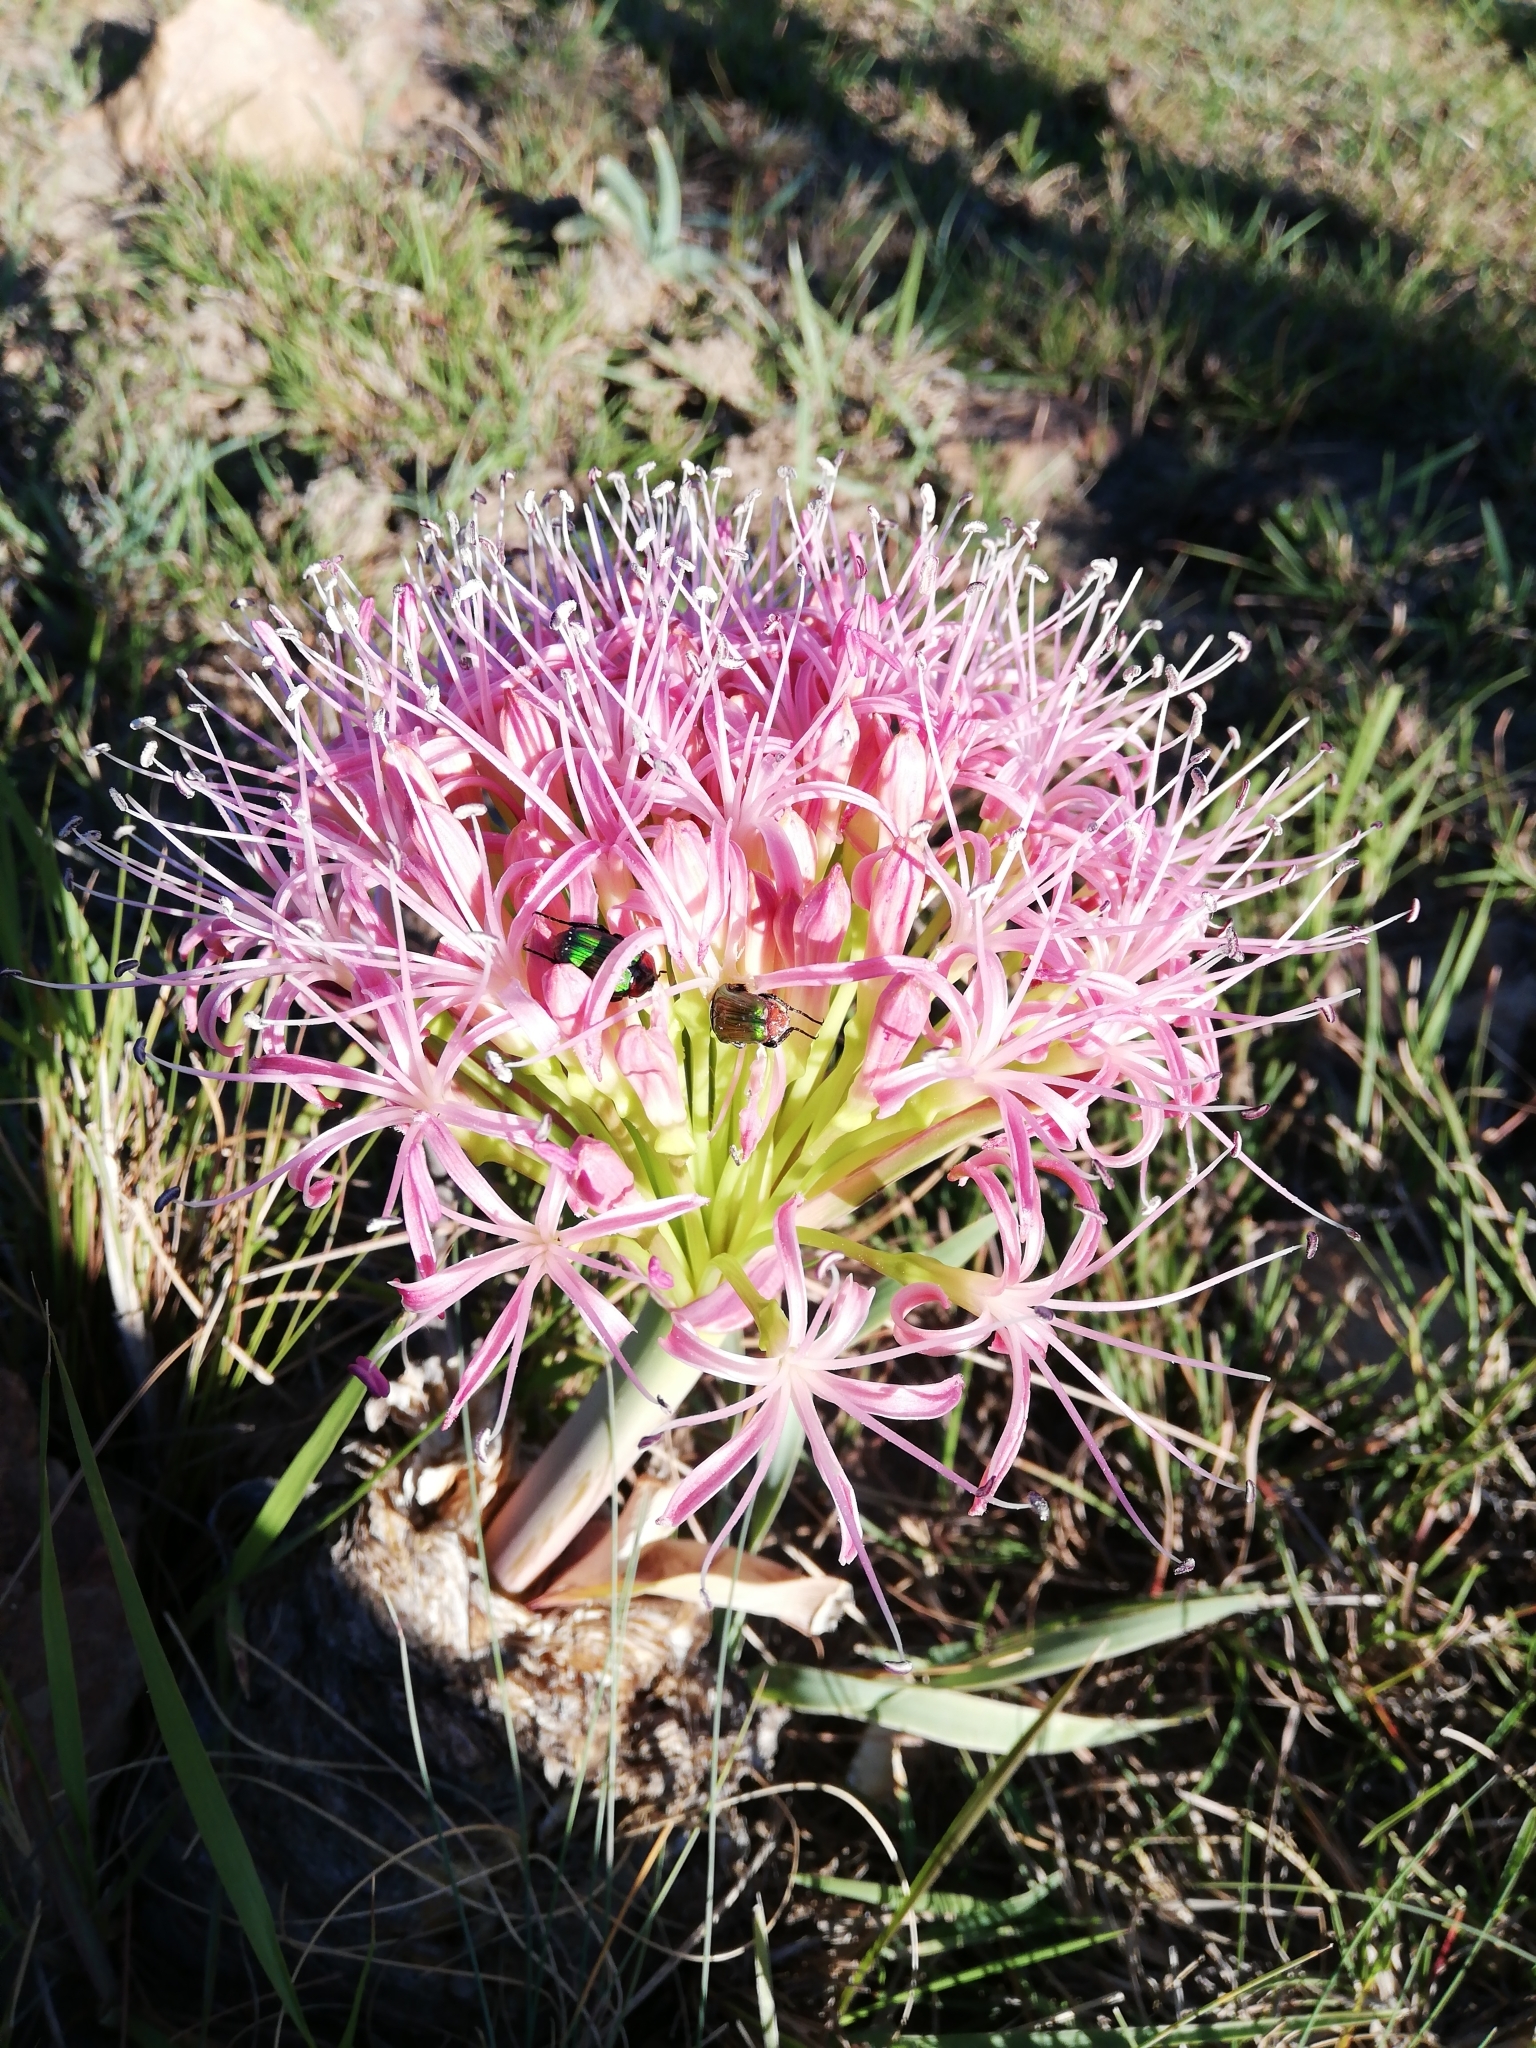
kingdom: Plantae
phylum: Tracheophyta
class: Liliopsida
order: Asparagales
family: Amaryllidaceae
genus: Boophone
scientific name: Boophone disticha
